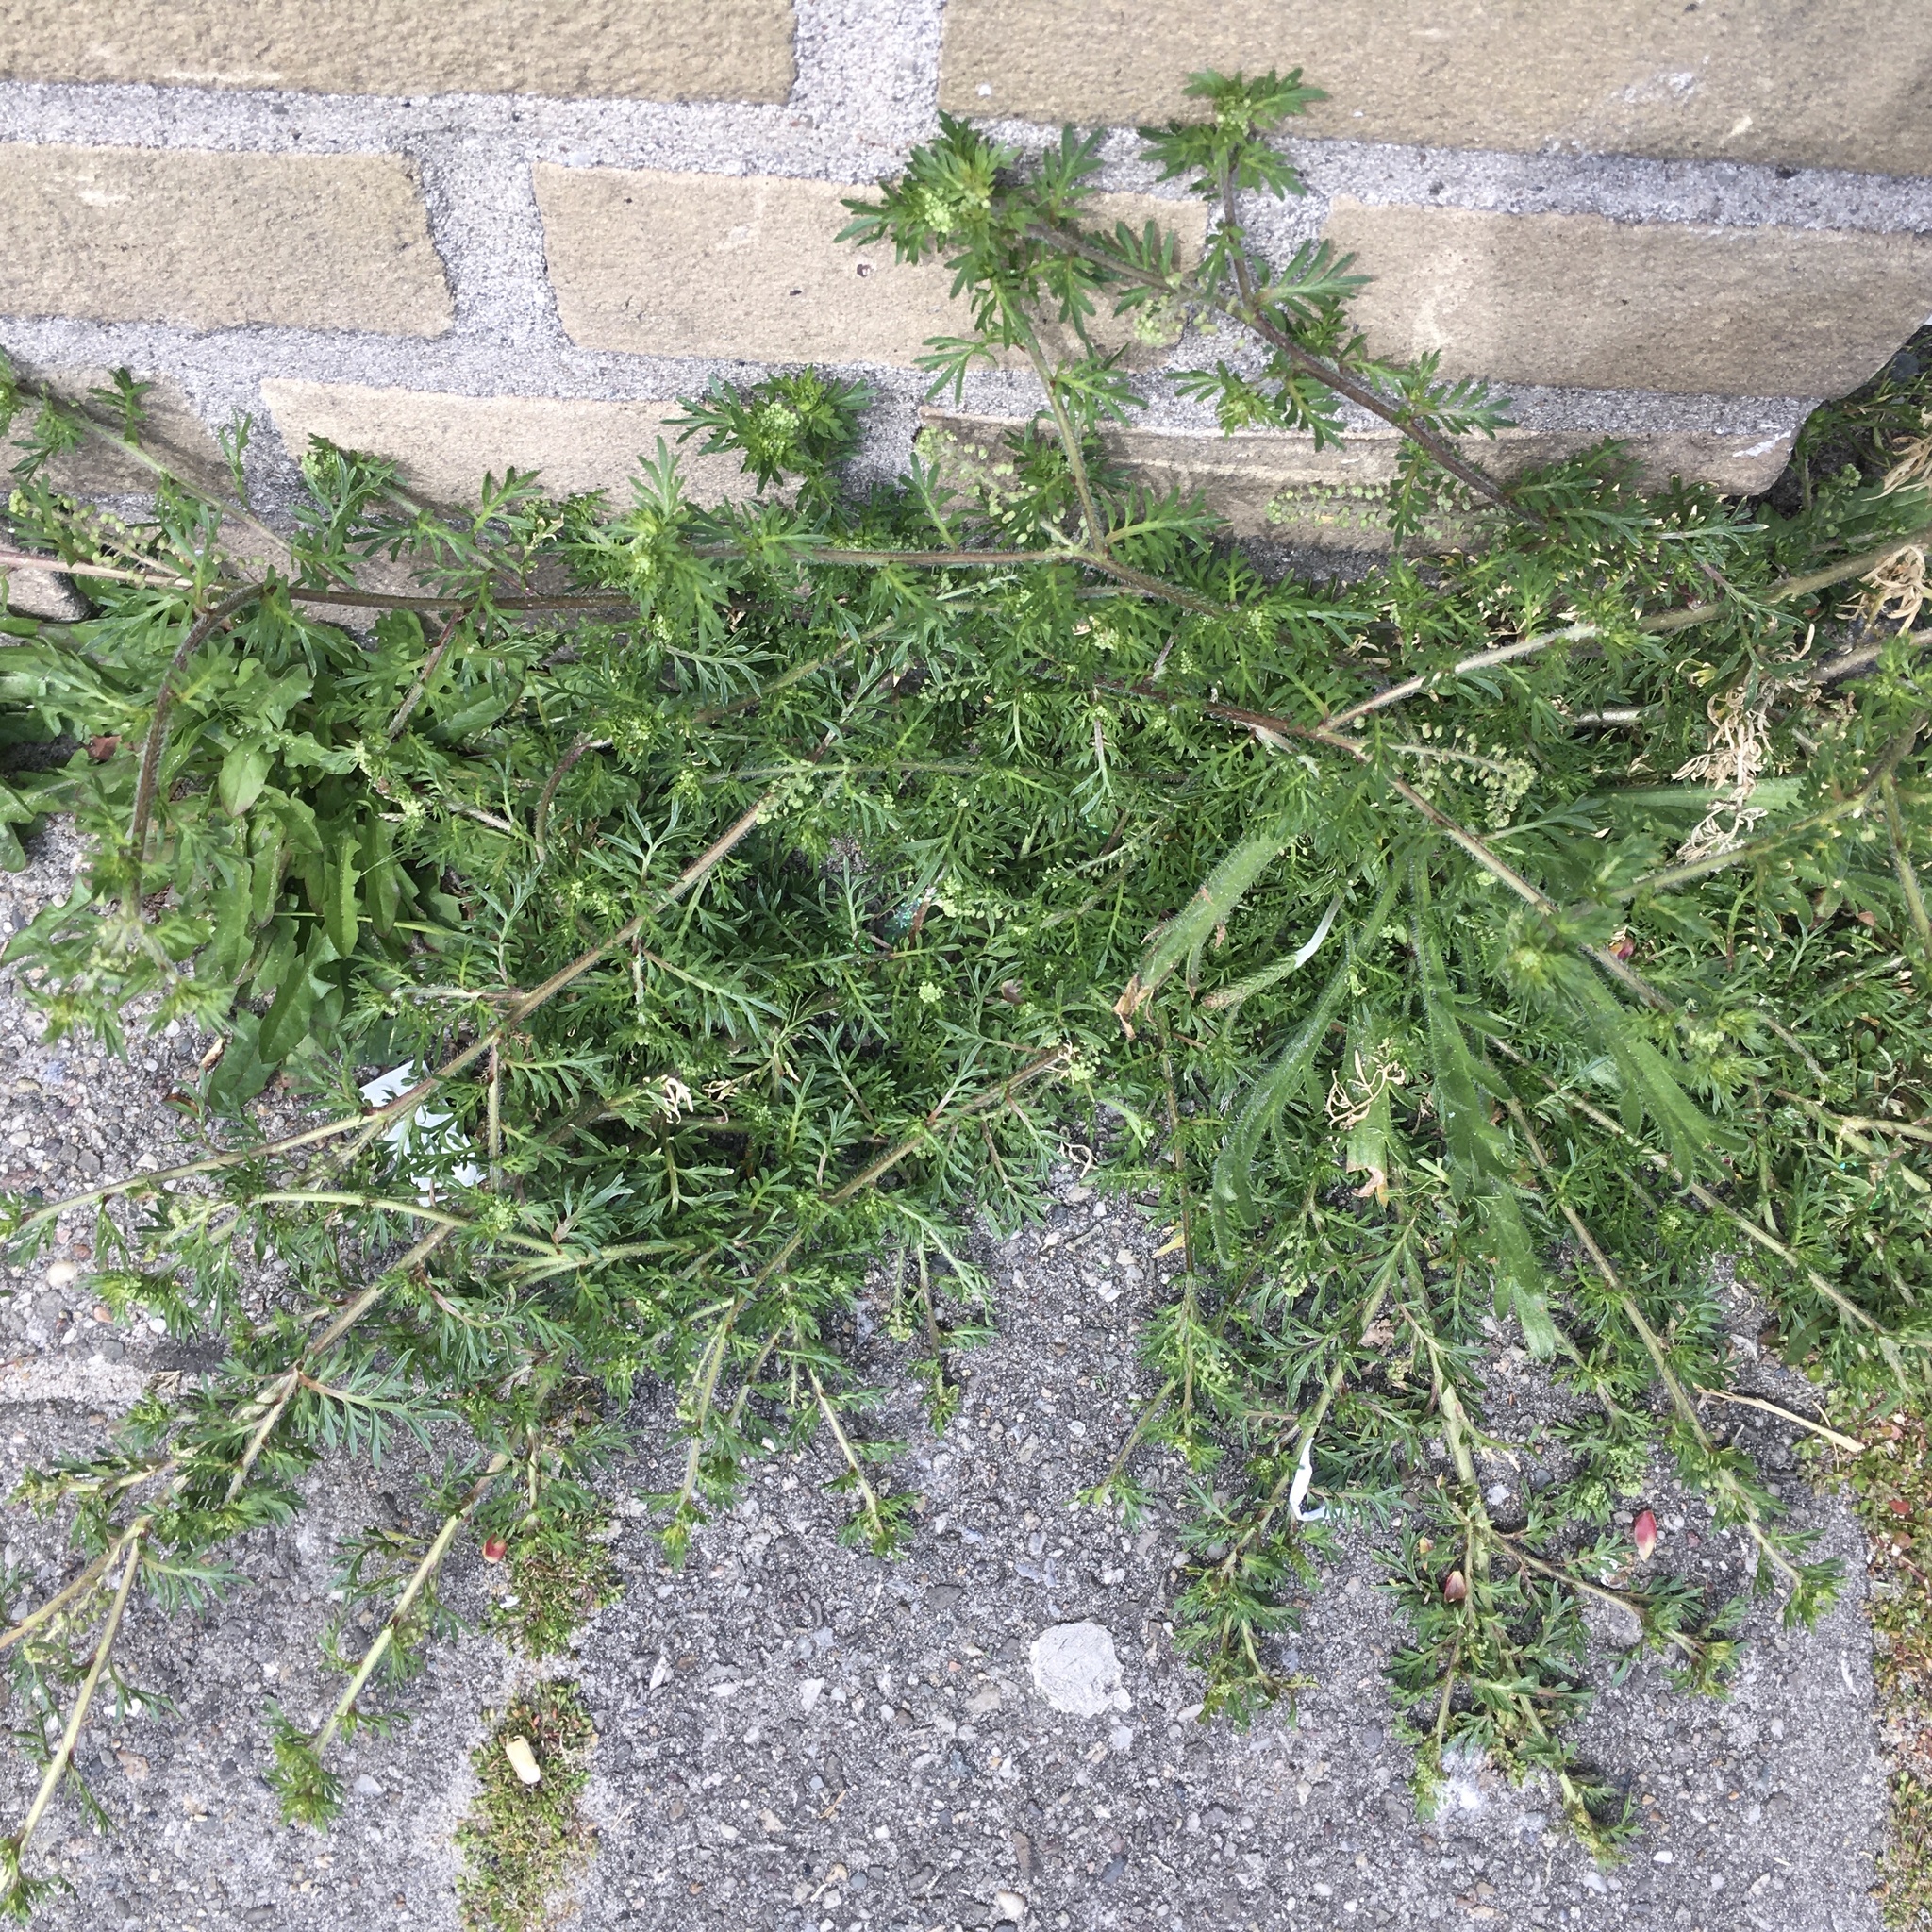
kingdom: Plantae
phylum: Tracheophyta
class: Magnoliopsida
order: Brassicales
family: Brassicaceae
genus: Lepidium
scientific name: Lepidium didymum
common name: Lesser swinecress
